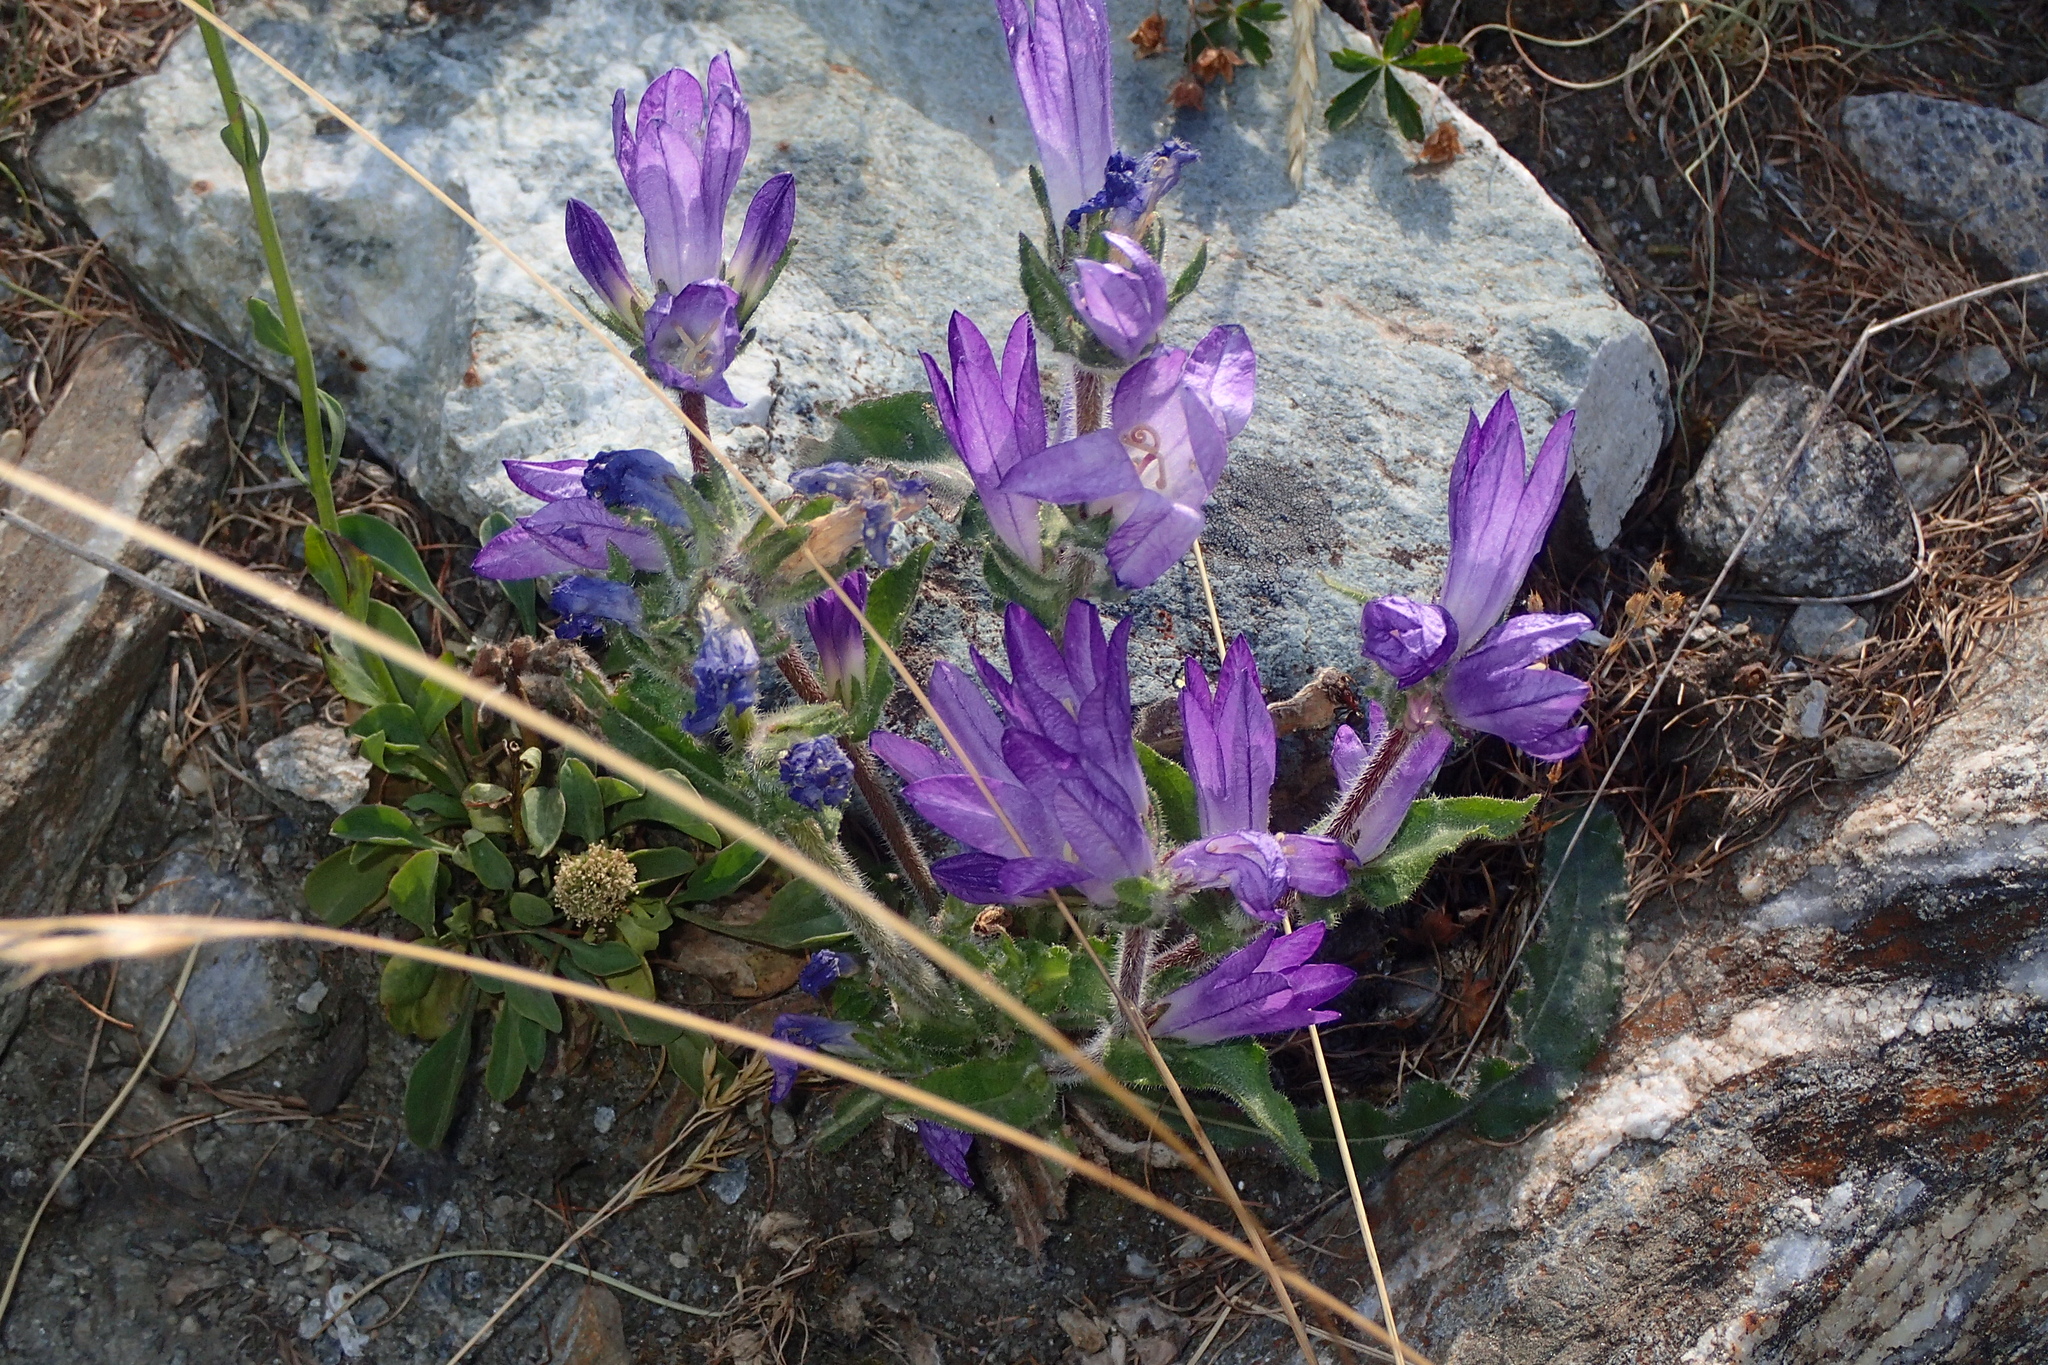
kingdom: Plantae
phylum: Tracheophyta
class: Magnoliopsida
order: Asterales
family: Campanulaceae
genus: Campanula
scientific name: Campanula spicata
